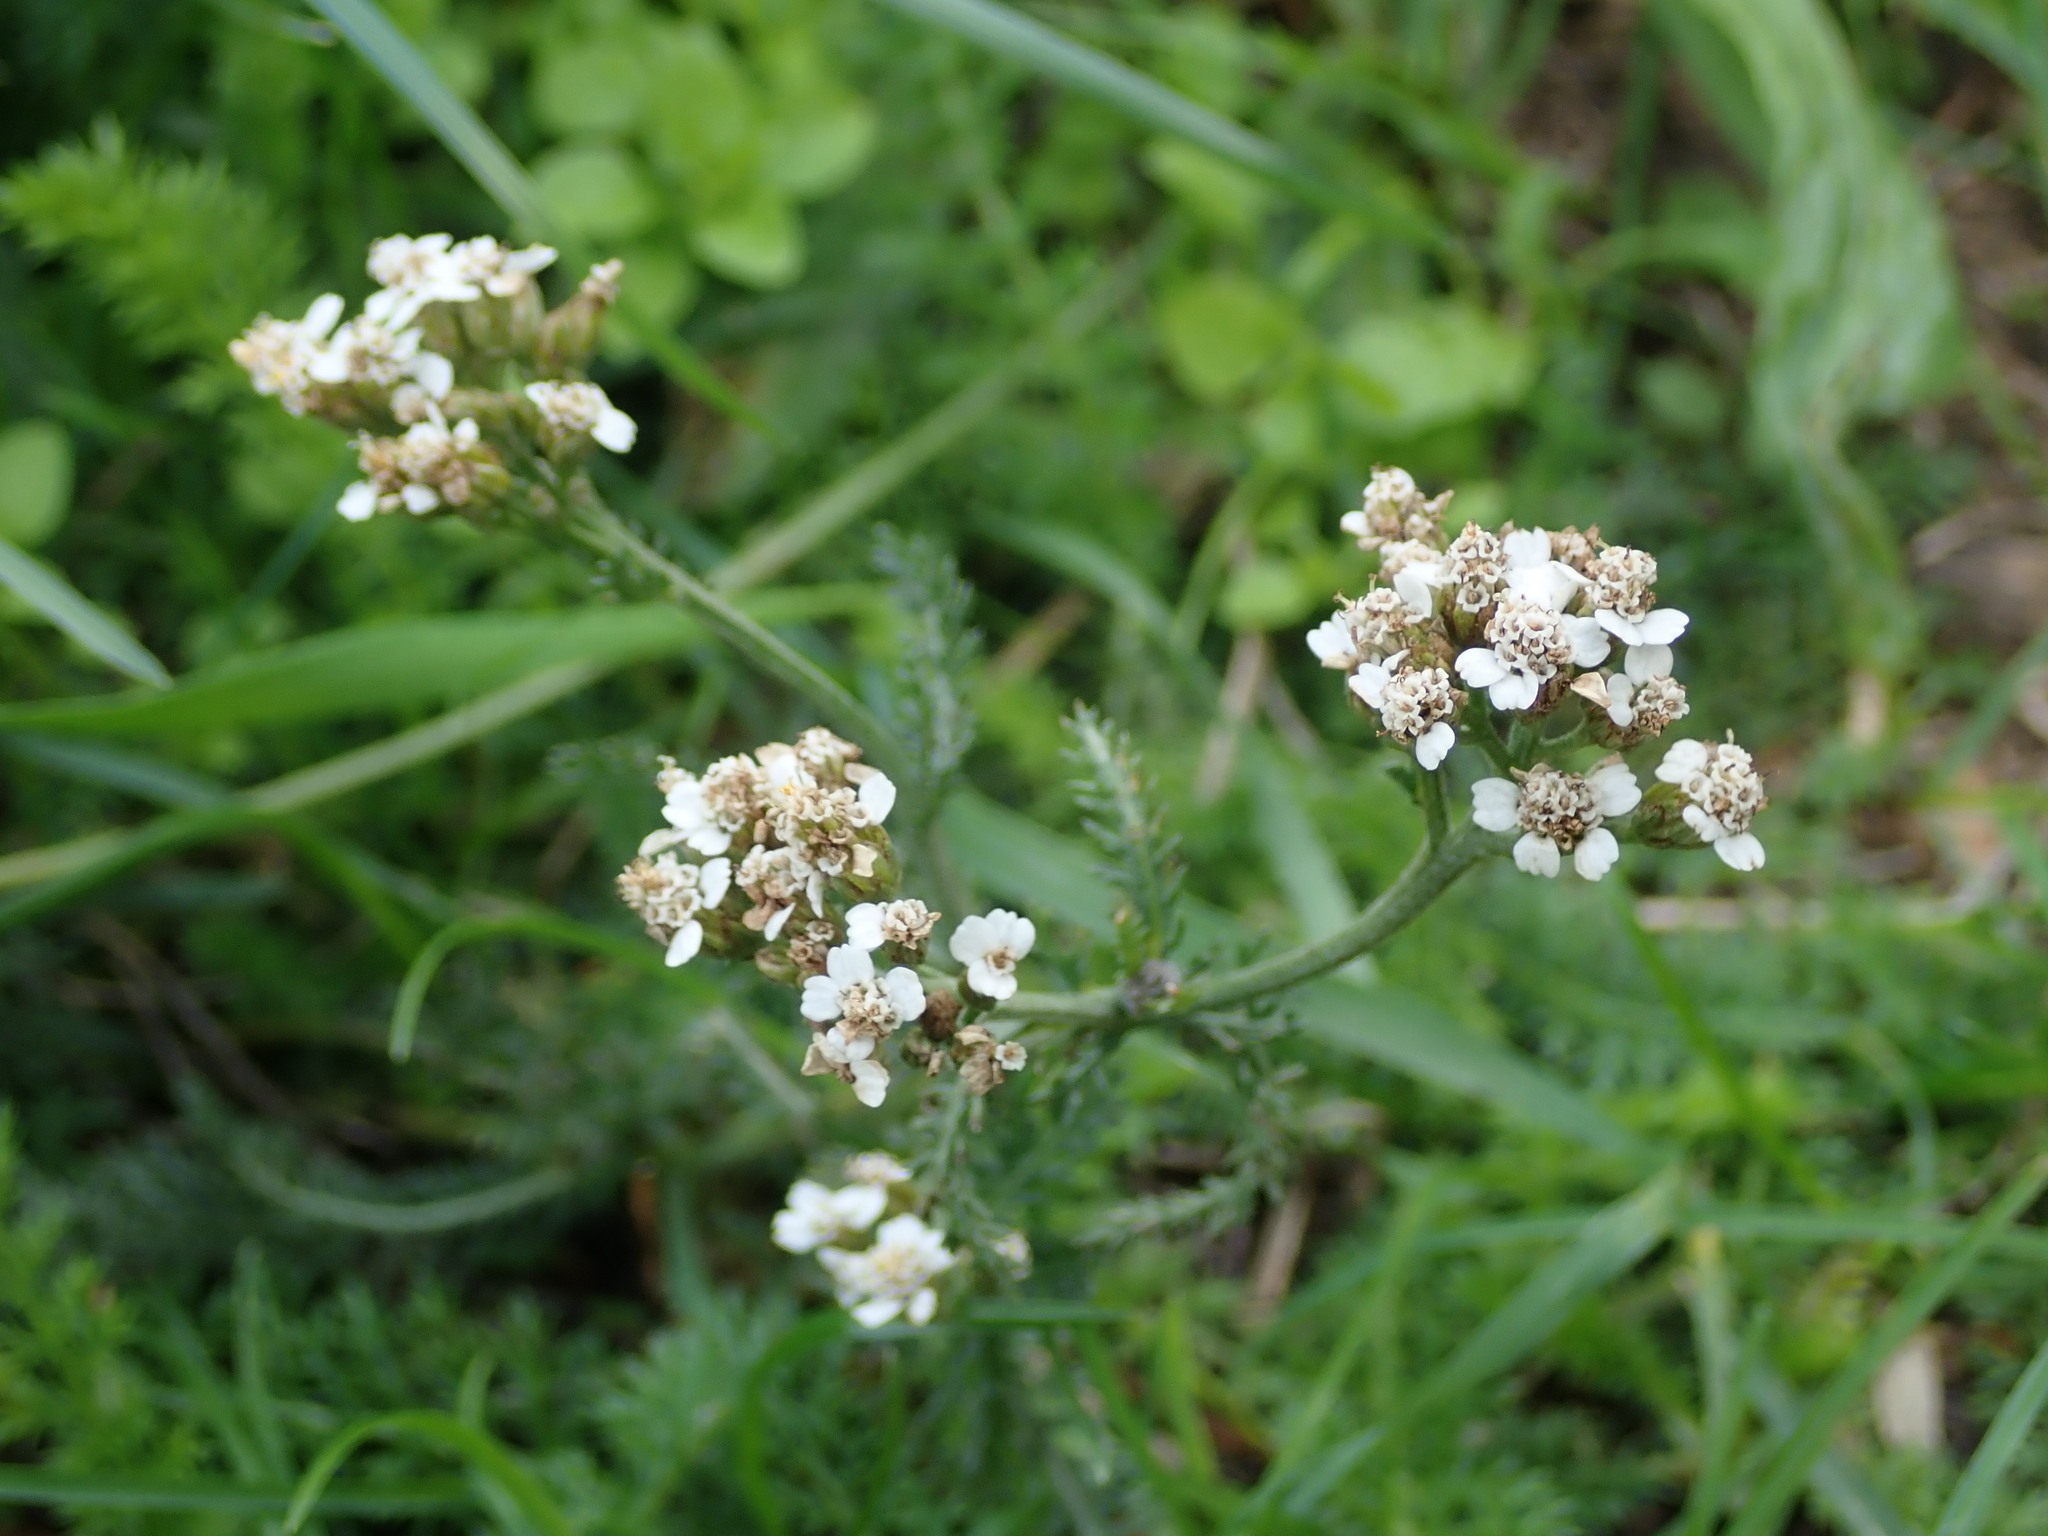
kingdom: Plantae
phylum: Tracheophyta
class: Magnoliopsida
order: Asterales
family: Asteraceae
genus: Achillea
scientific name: Achillea millefolium
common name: Yarrow
